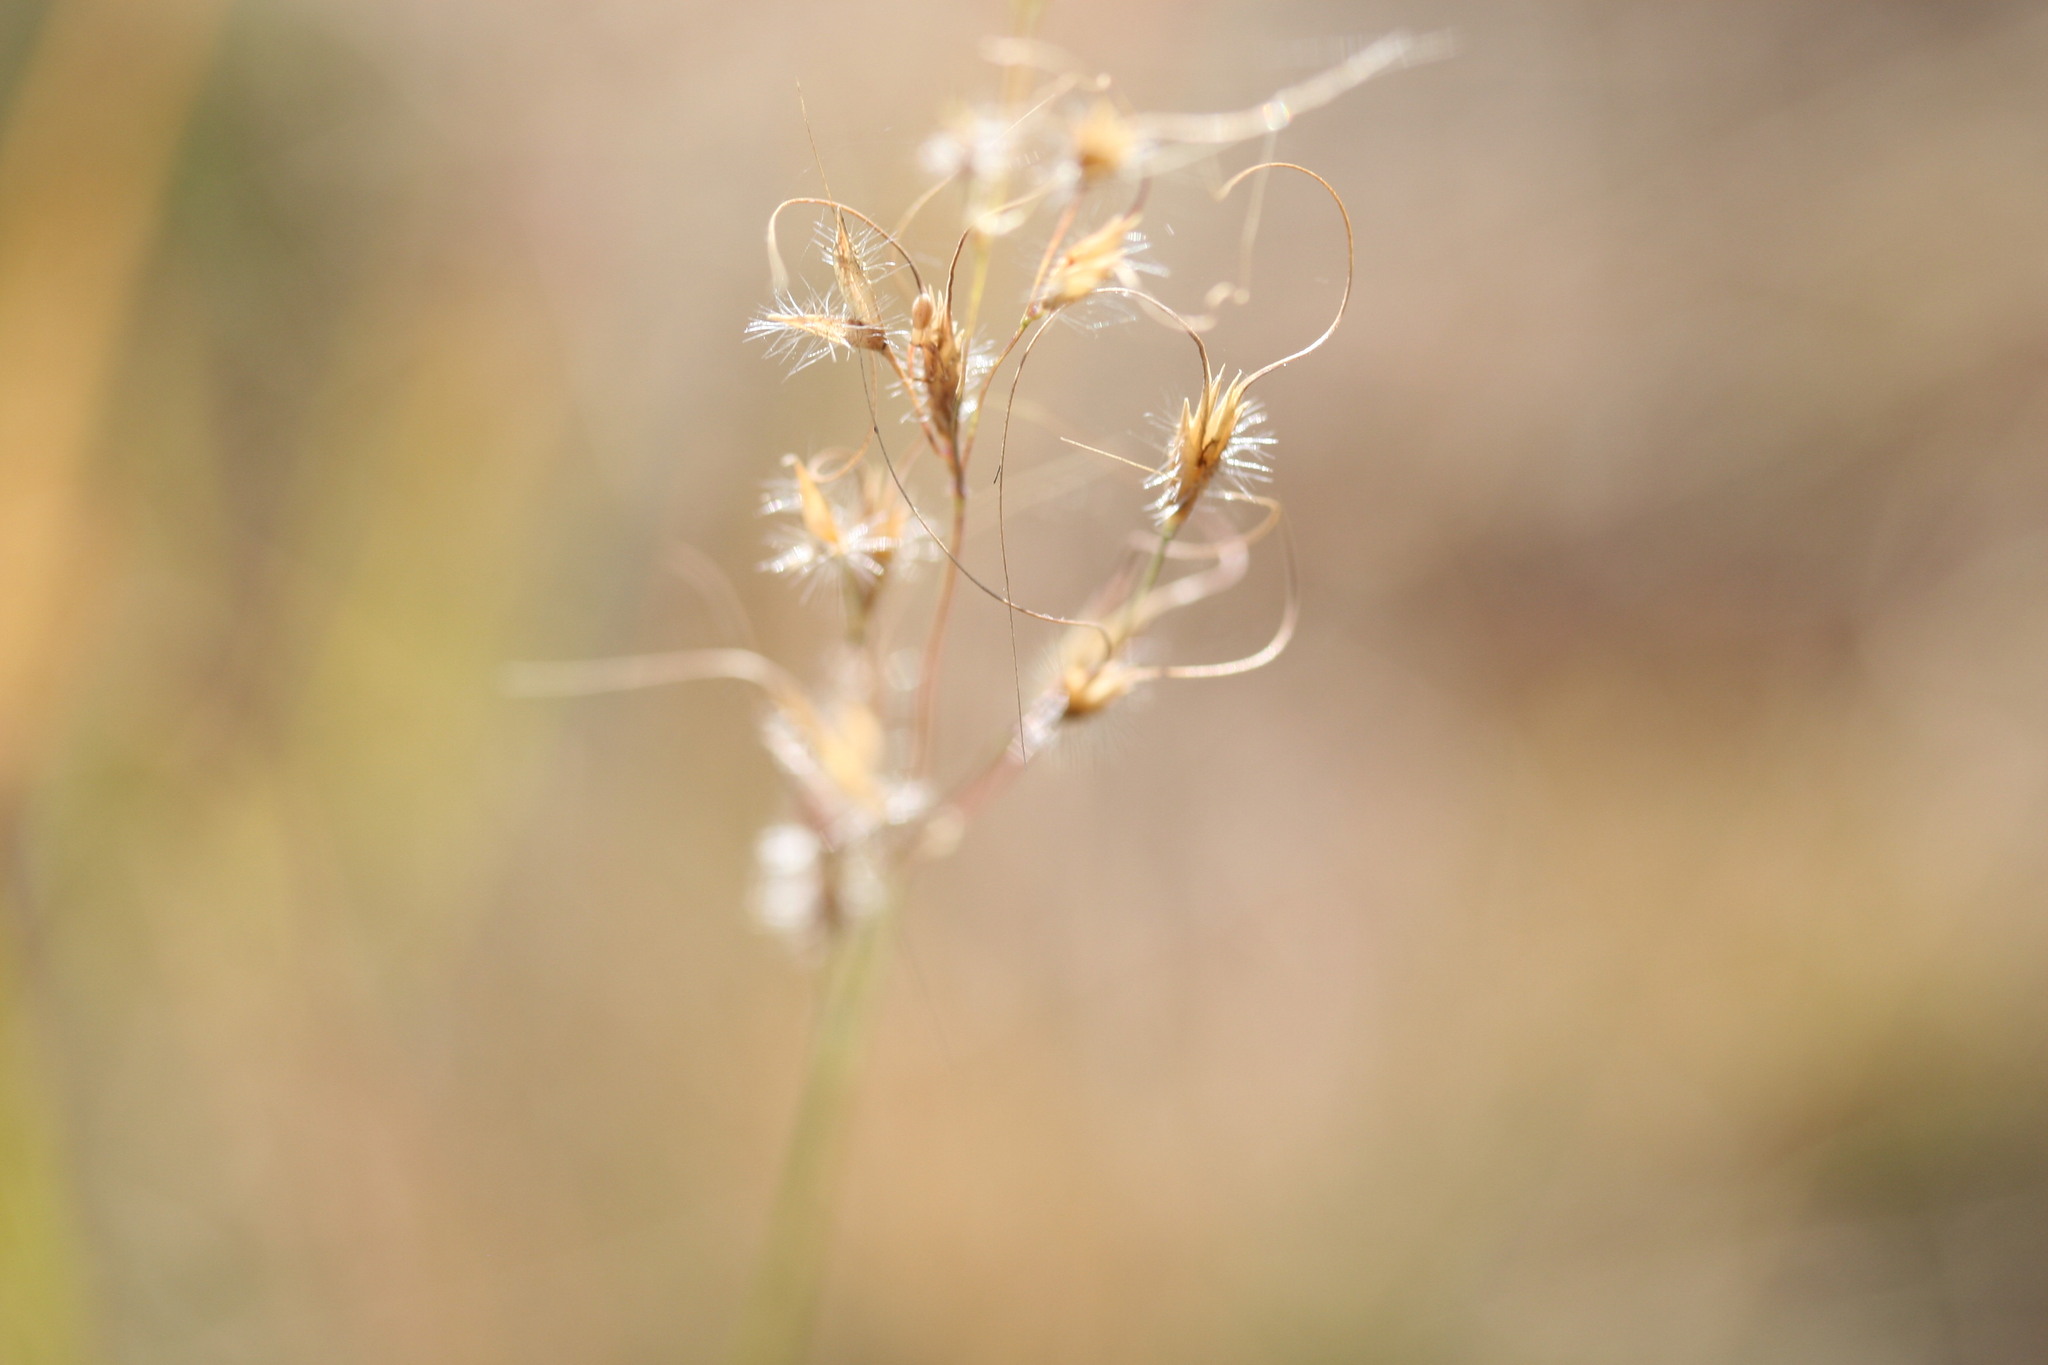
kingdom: Plantae
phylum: Tracheophyta
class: Liliopsida
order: Poales
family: Poaceae
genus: Eriachne
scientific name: Eriachne pauciflora
